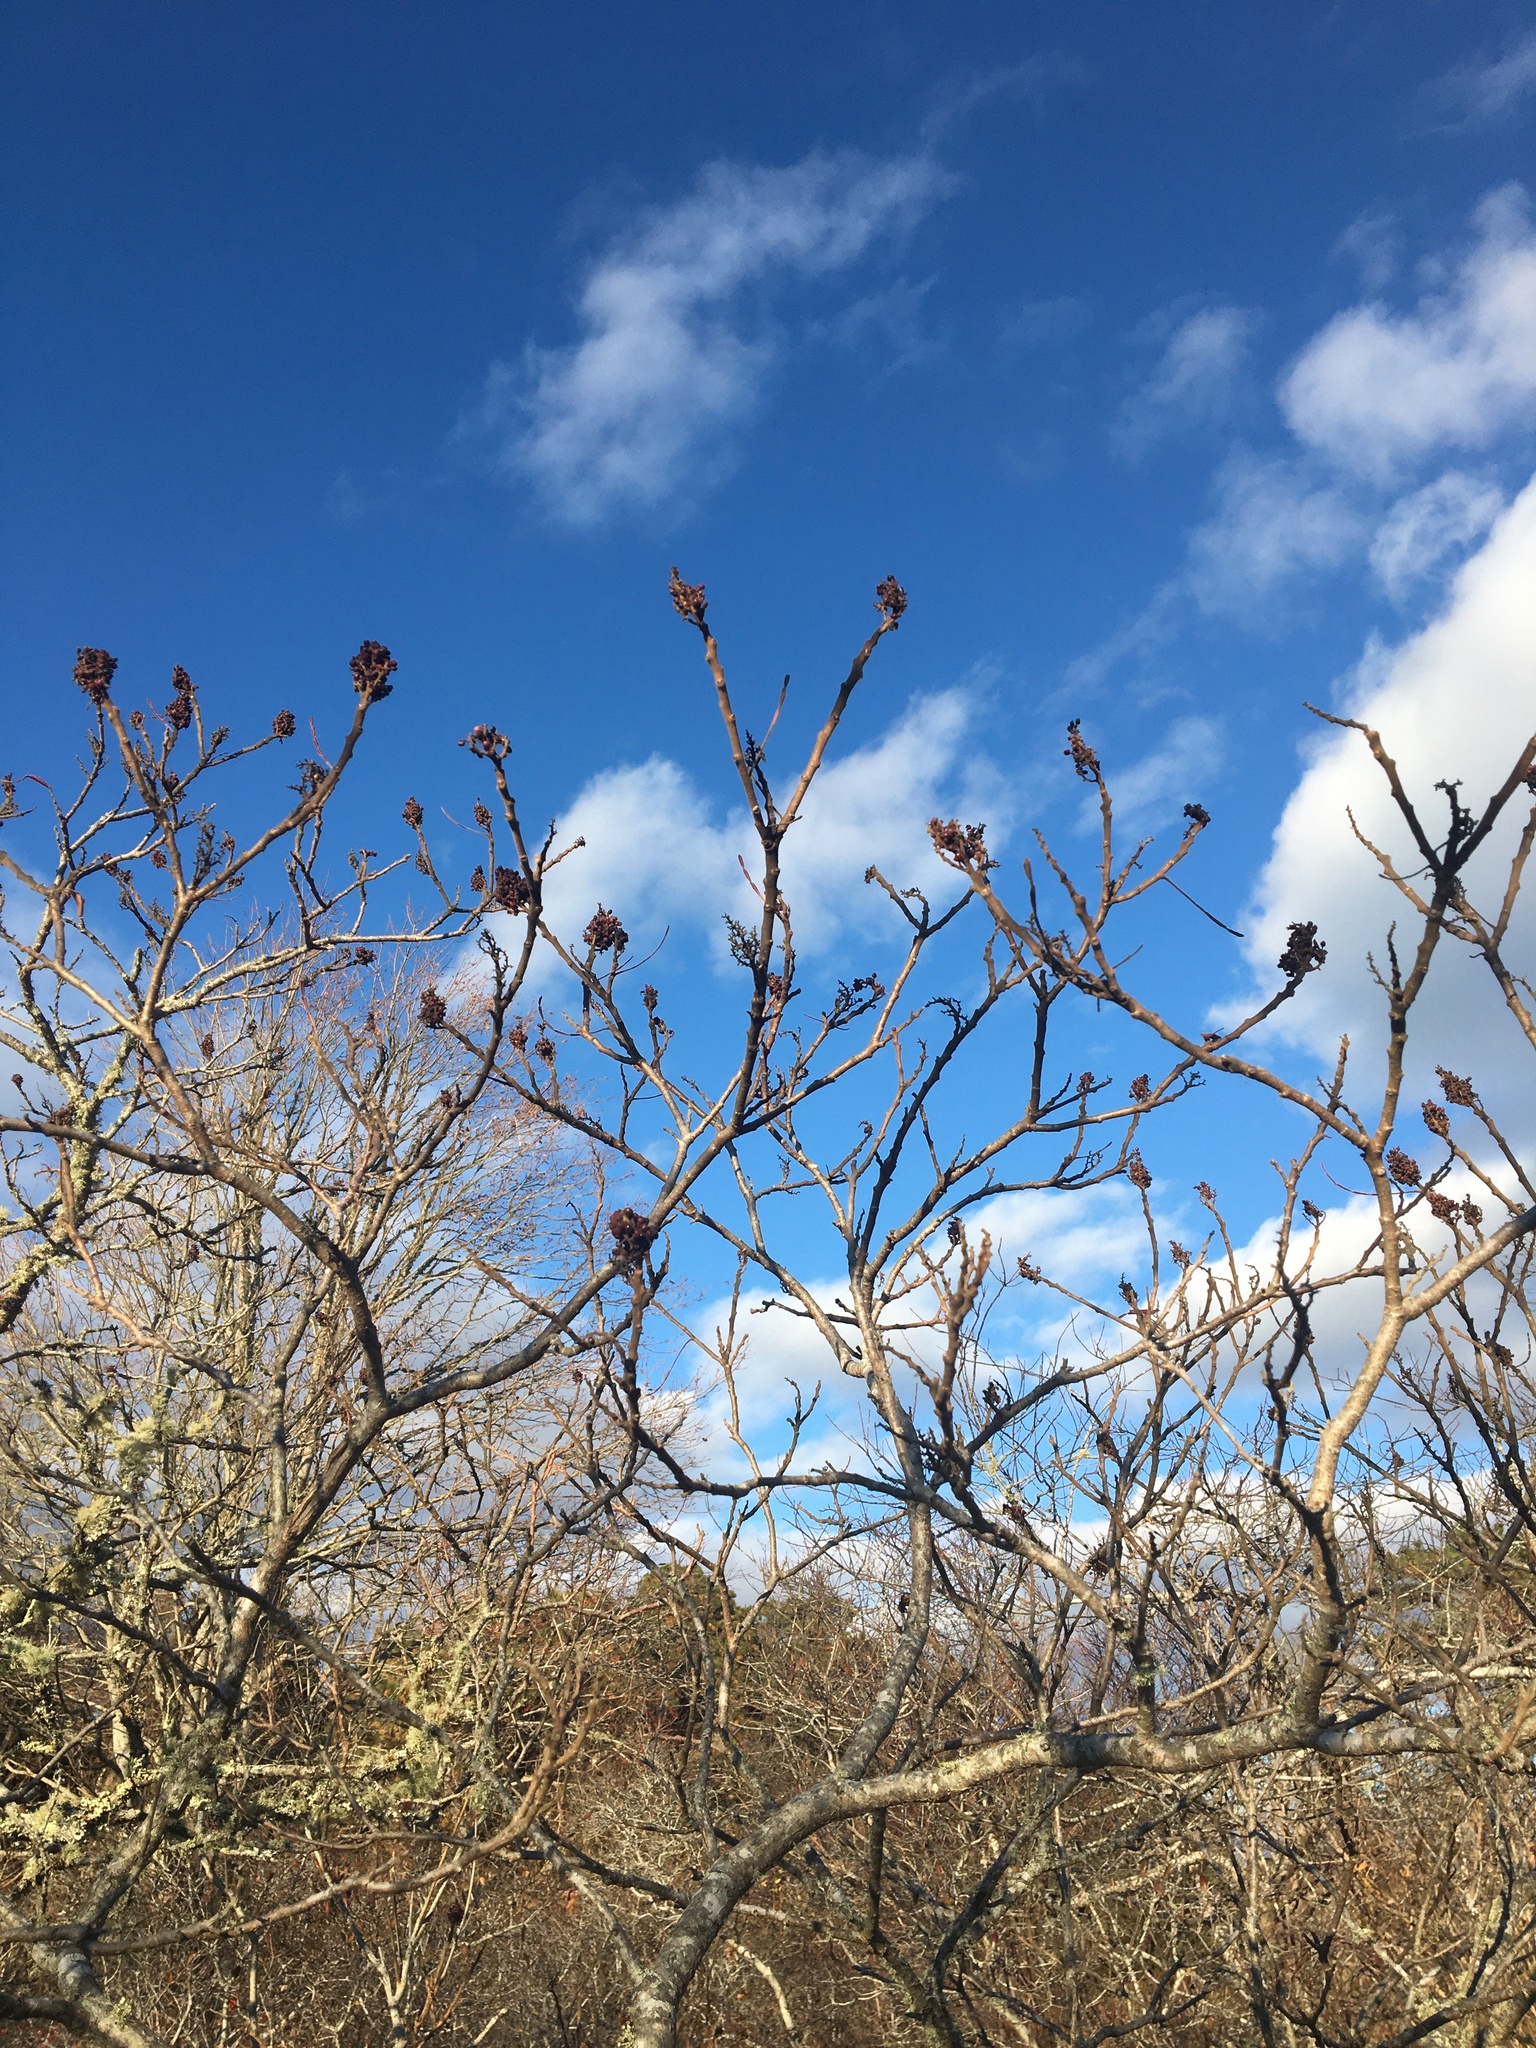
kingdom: Plantae
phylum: Tracheophyta
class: Magnoliopsida
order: Sapindales
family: Anacardiaceae
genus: Rhus
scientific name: Rhus copallina
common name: Shining sumac
